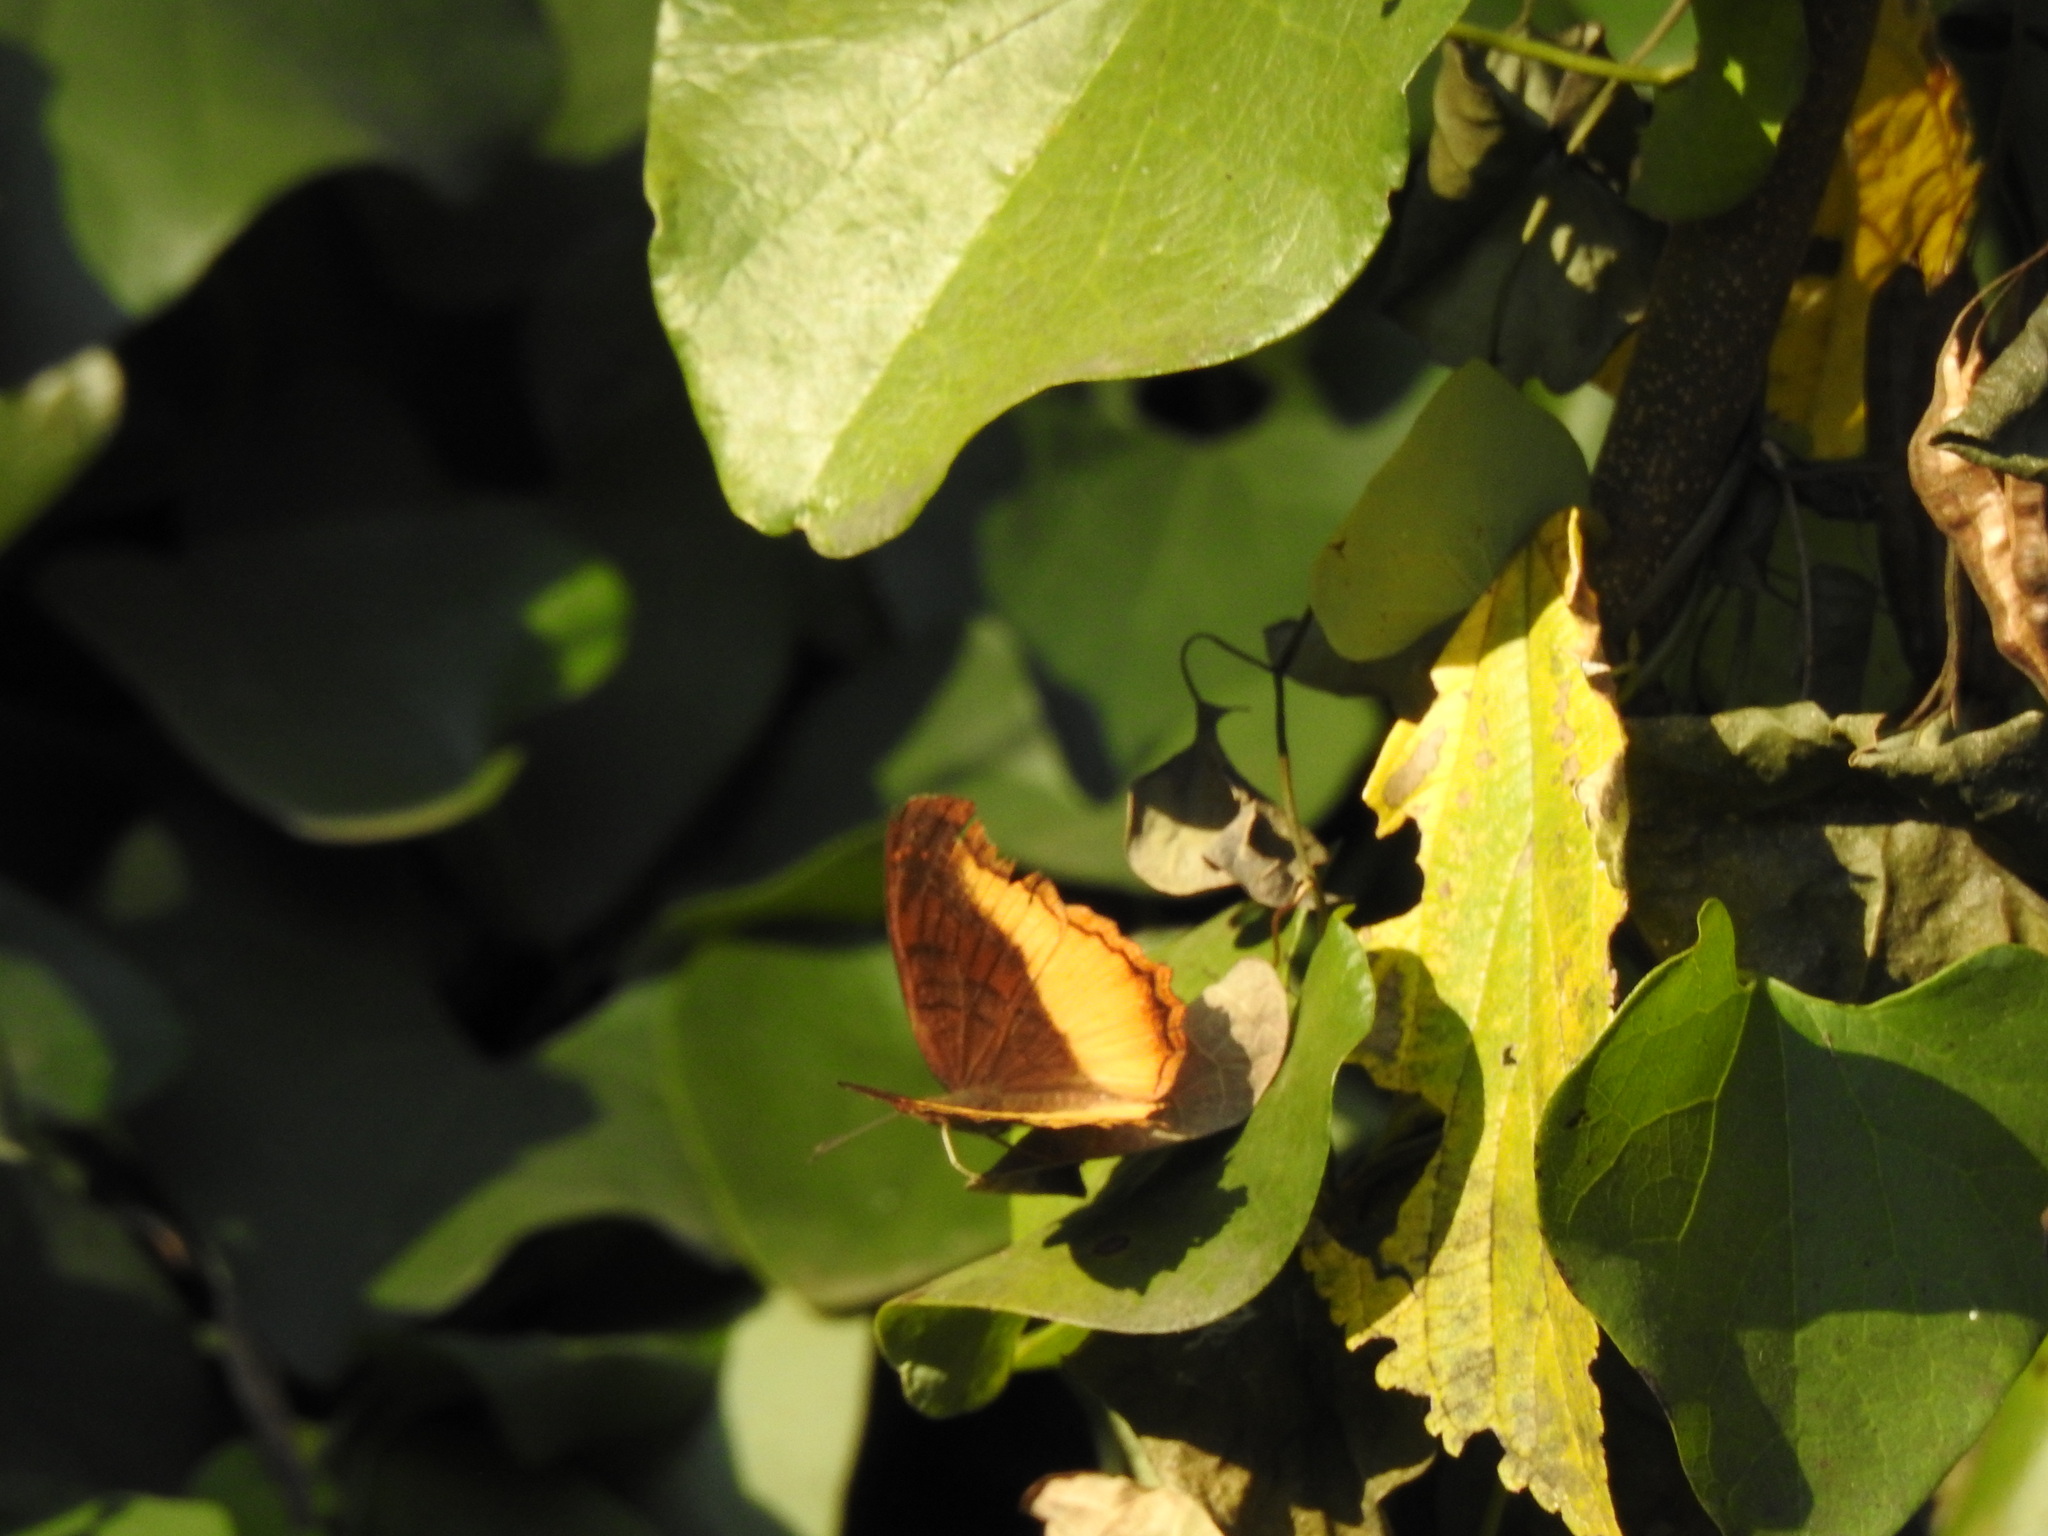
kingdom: Animalia
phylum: Arthropoda
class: Insecta
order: Lepidoptera
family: Nymphalidae
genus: Eurytela
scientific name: Eurytela dryope
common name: Golden piper
